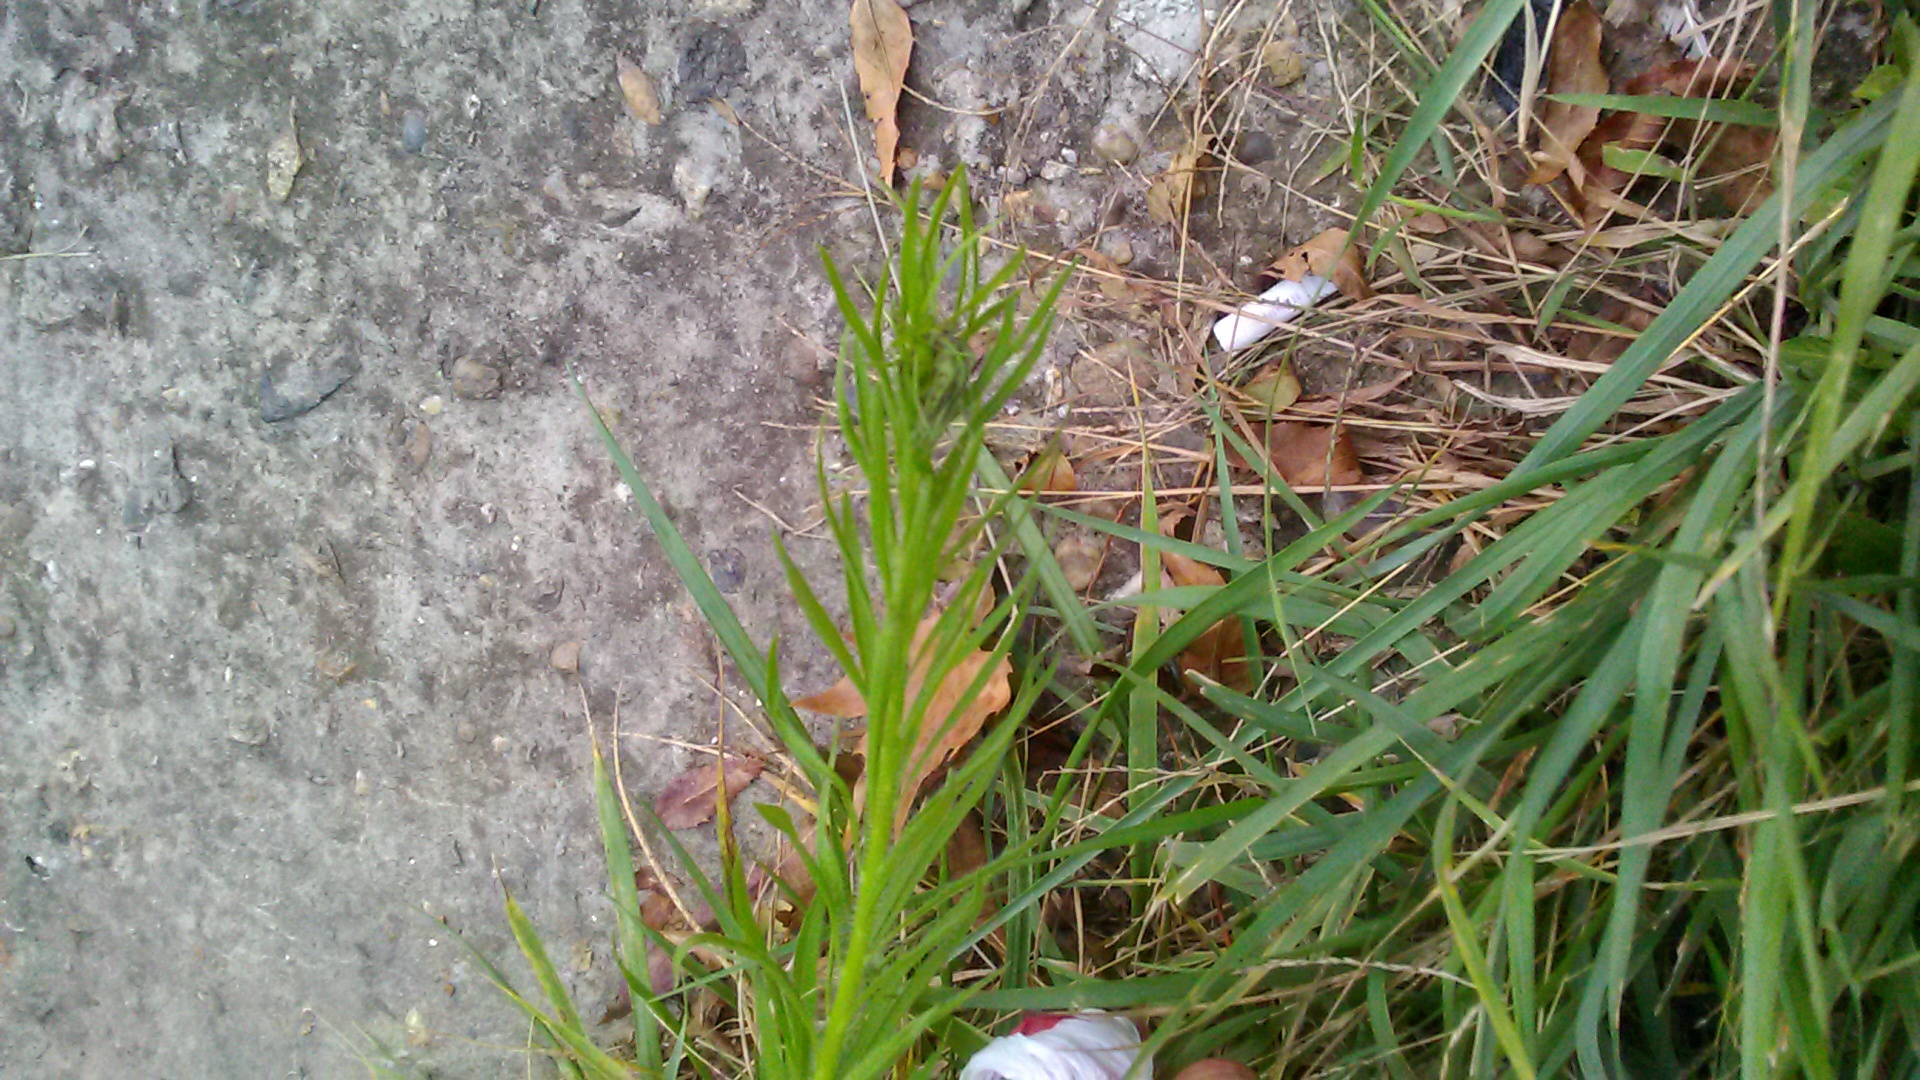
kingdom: Plantae
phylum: Tracheophyta
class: Magnoliopsida
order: Asterales
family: Asteraceae
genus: Erigeron
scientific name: Erigeron canadensis
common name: Canadian fleabane
